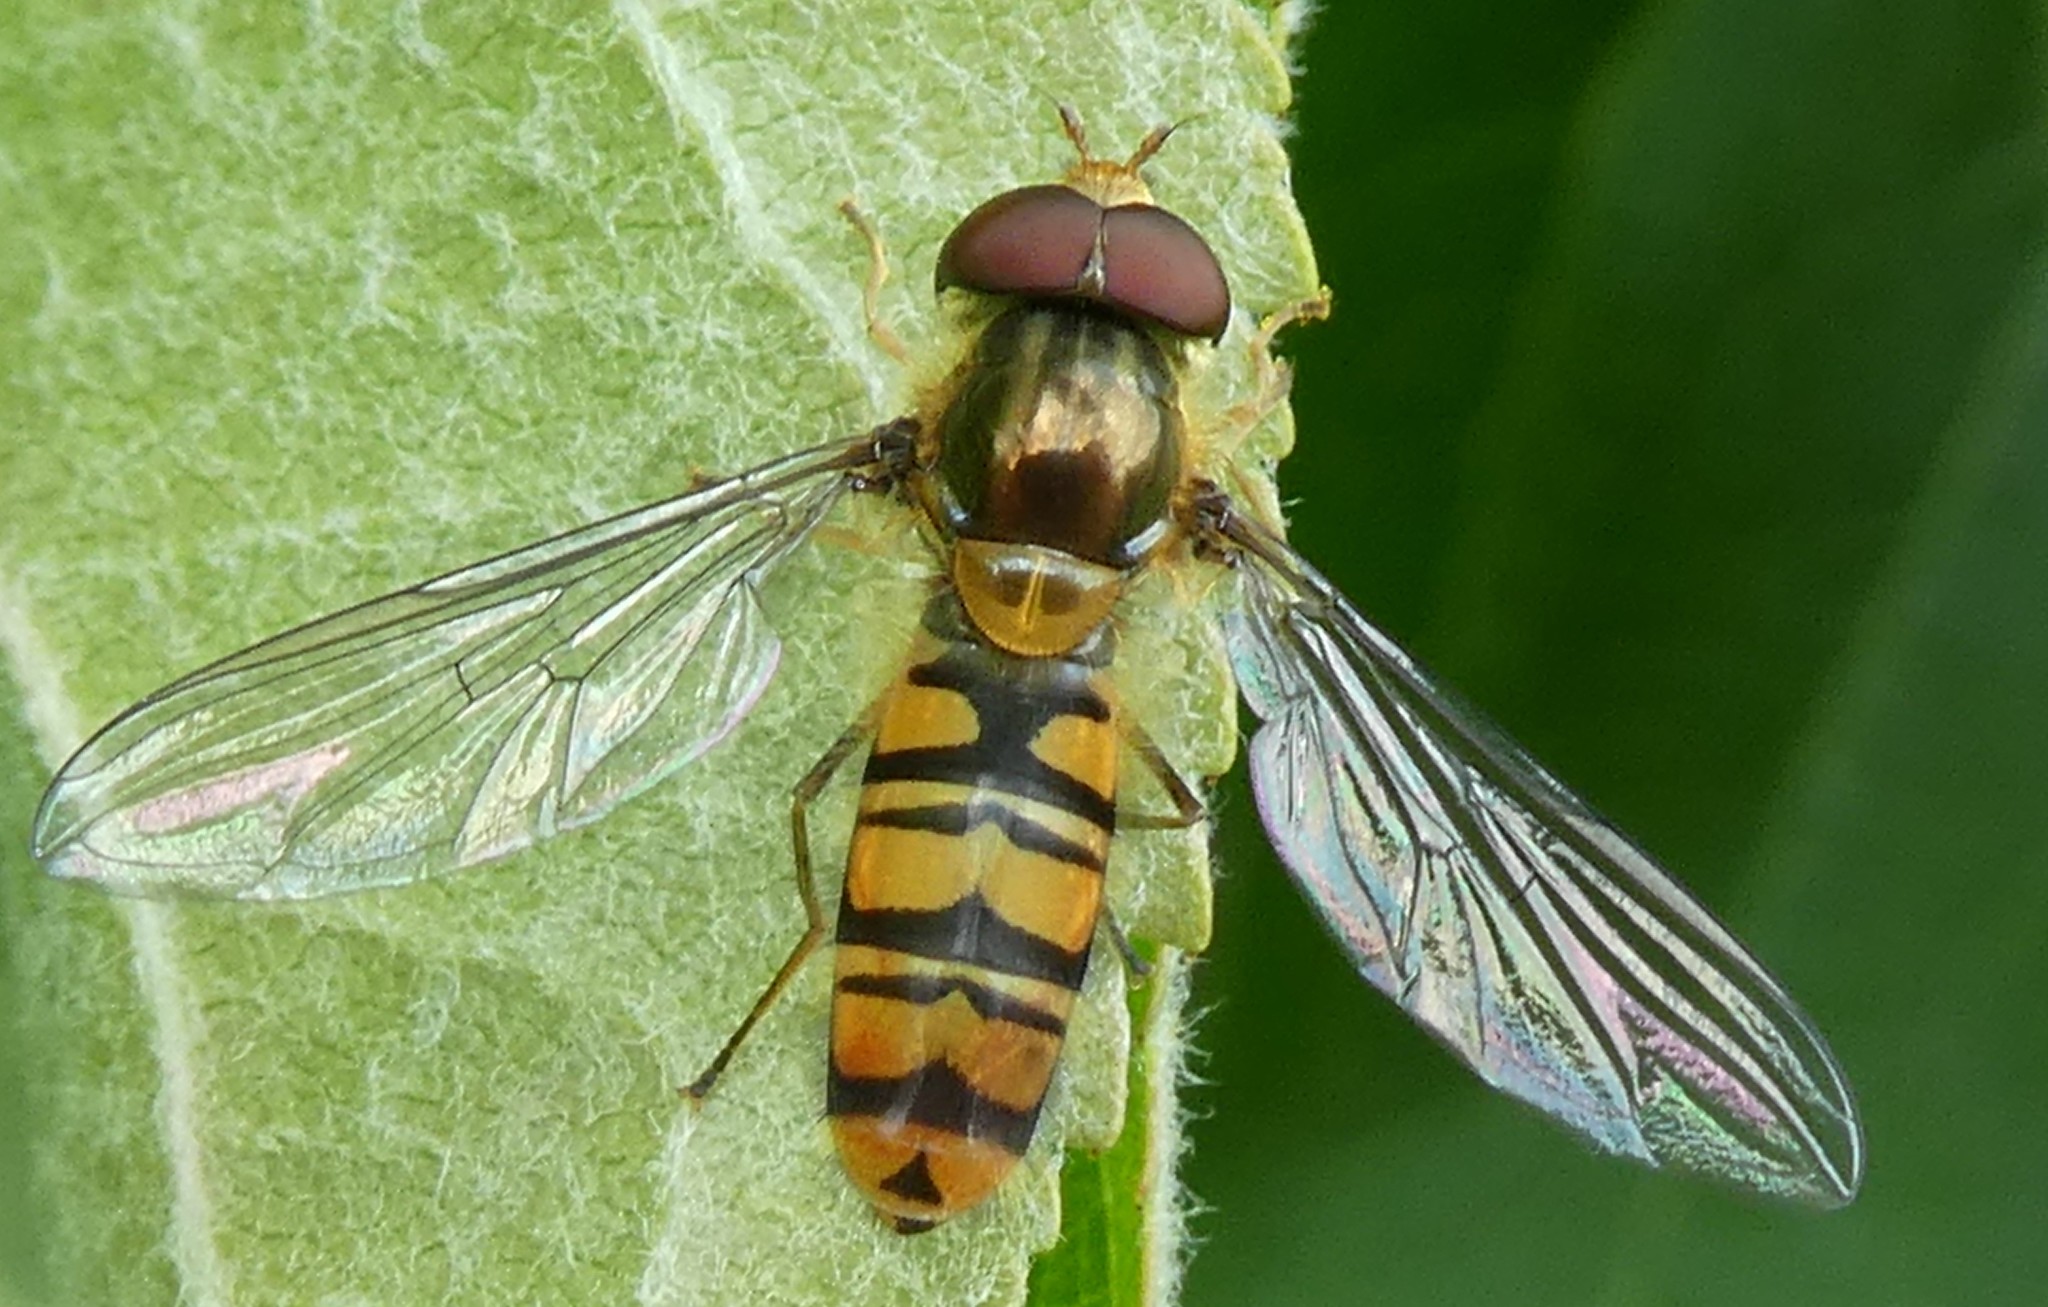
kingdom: Animalia
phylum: Arthropoda
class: Insecta
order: Diptera
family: Syrphidae
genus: Episyrphus
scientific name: Episyrphus balteatus
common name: Marmalade hoverfly
